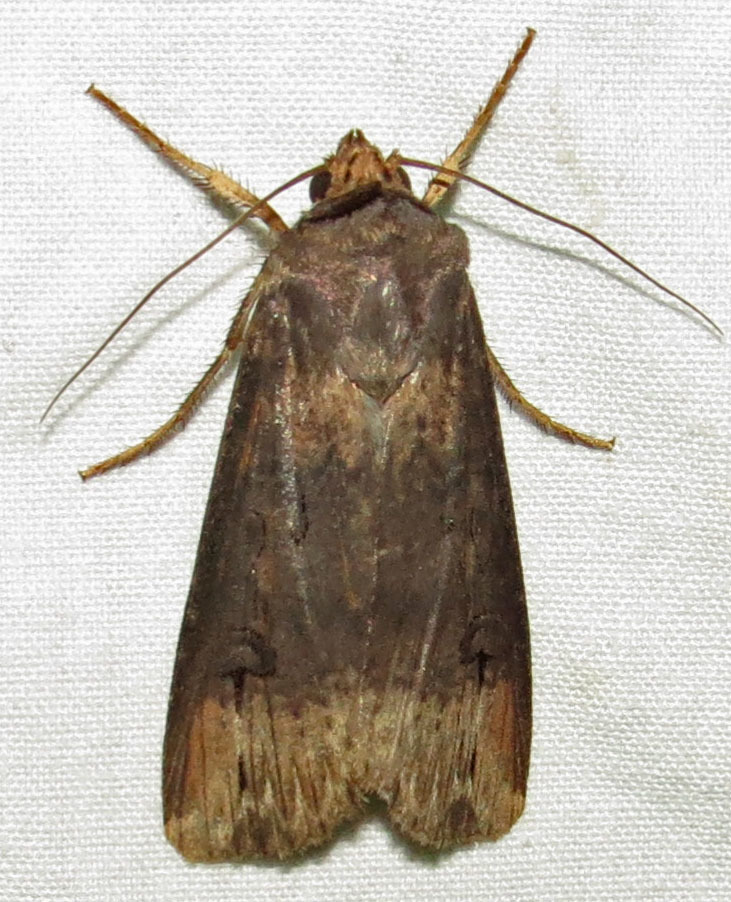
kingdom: Animalia
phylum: Arthropoda
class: Insecta
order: Lepidoptera
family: Noctuidae
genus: Agrotis
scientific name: Agrotis ipsilon
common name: Dark sword-grass
